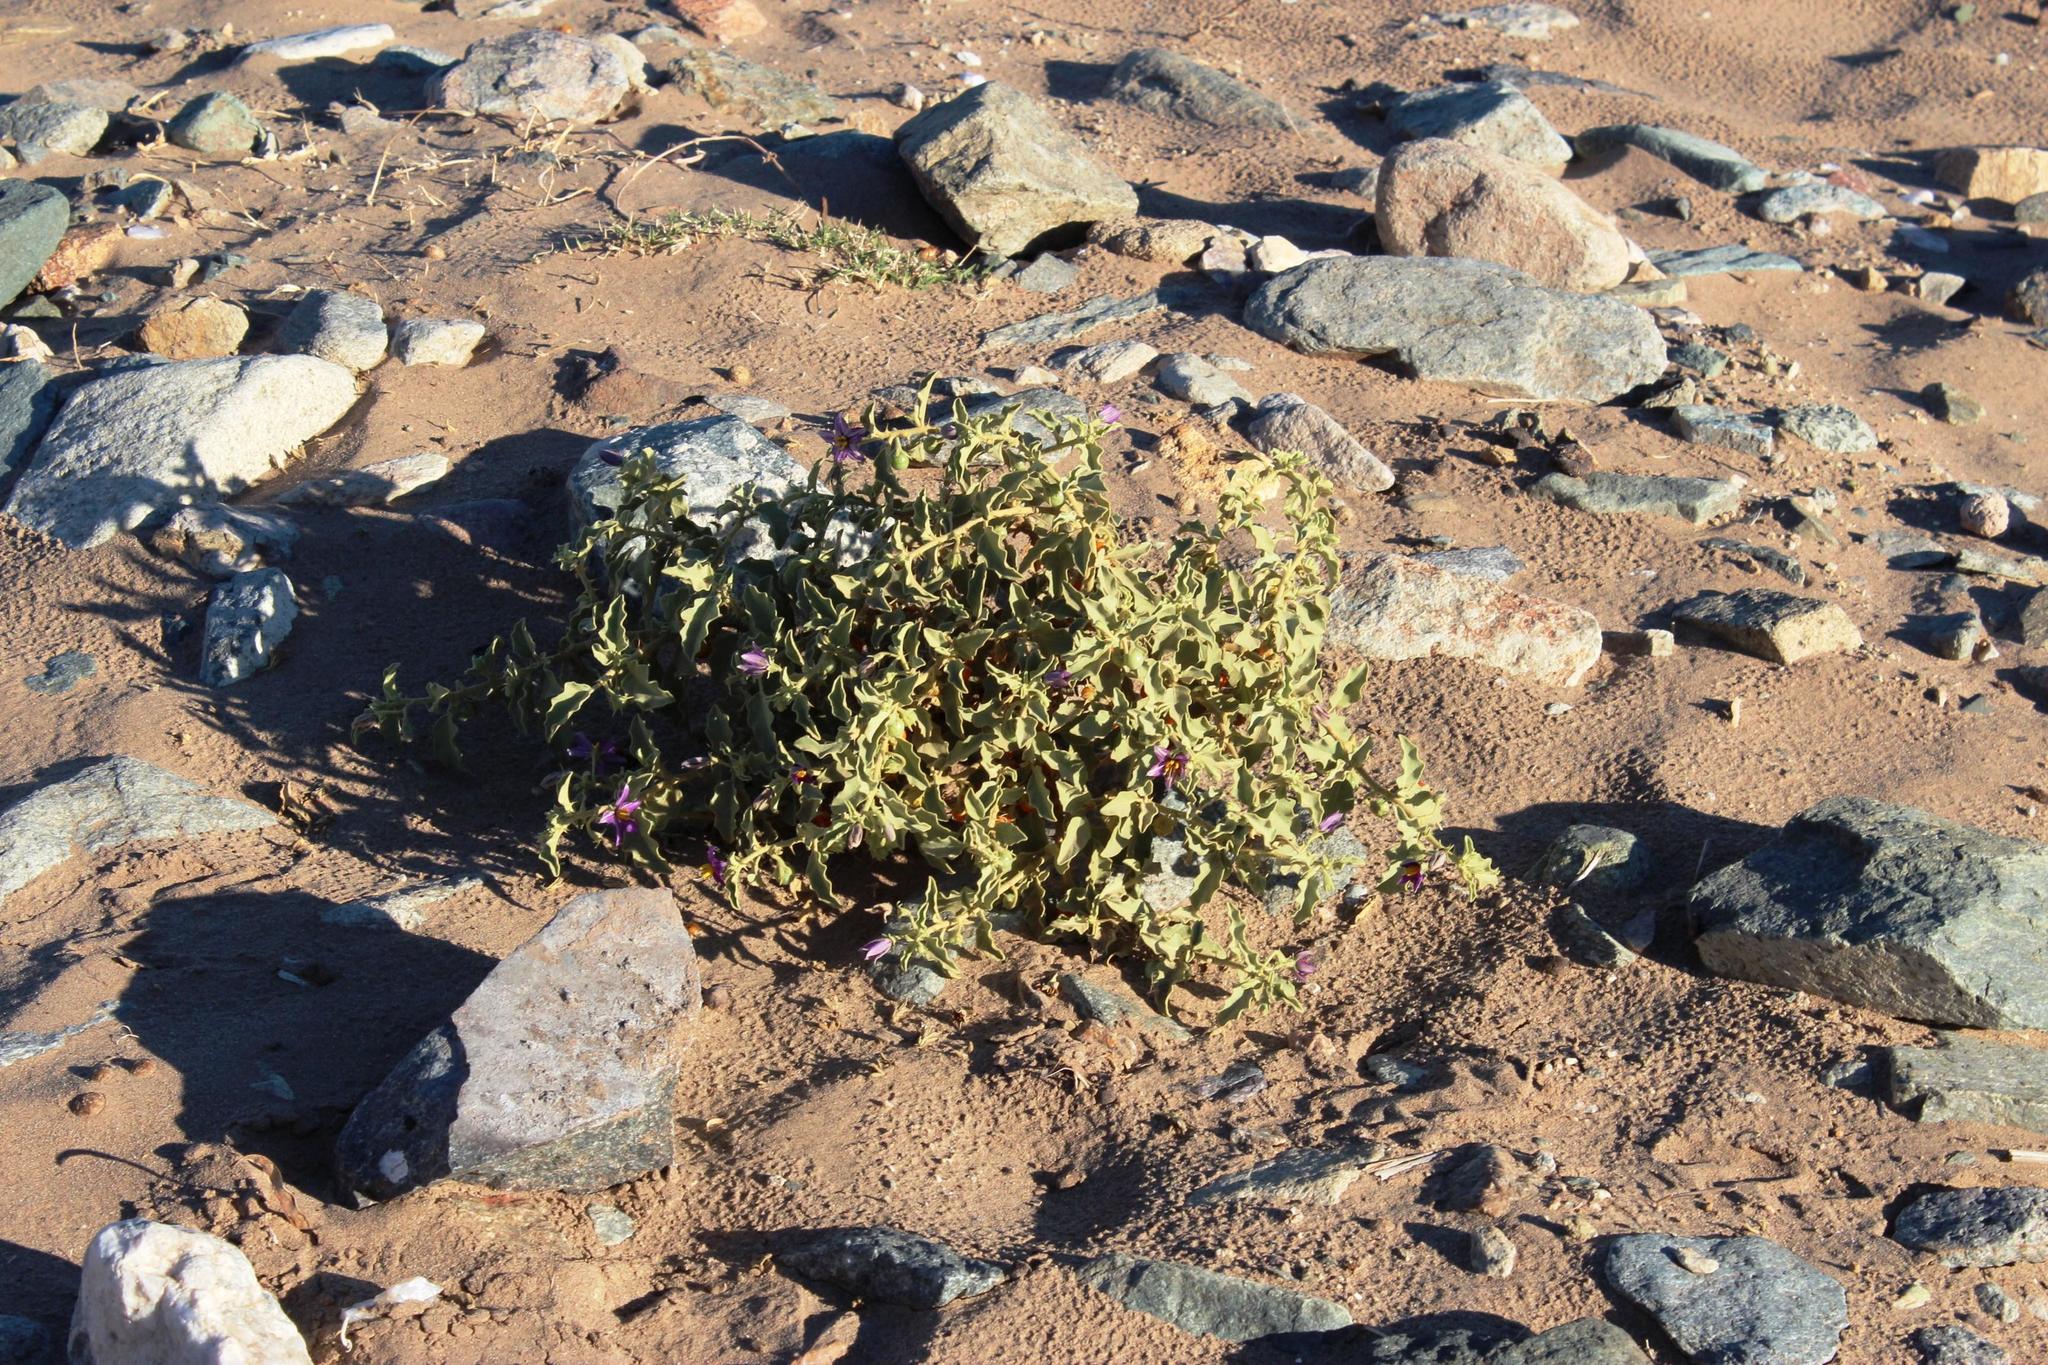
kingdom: Plantae
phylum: Tracheophyta
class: Magnoliopsida
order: Solanales
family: Solanaceae
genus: Solanum
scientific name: Solanum burchellii
